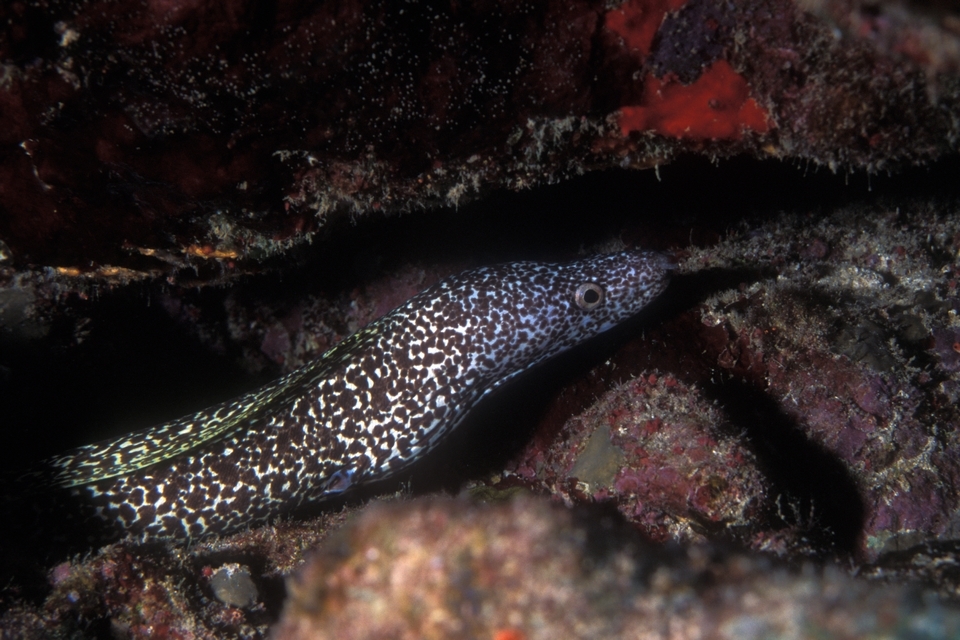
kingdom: Animalia
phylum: Chordata
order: Anguilliformes
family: Muraenidae
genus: Gymnothorax
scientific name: Gymnothorax moringa
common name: Spotted moray
